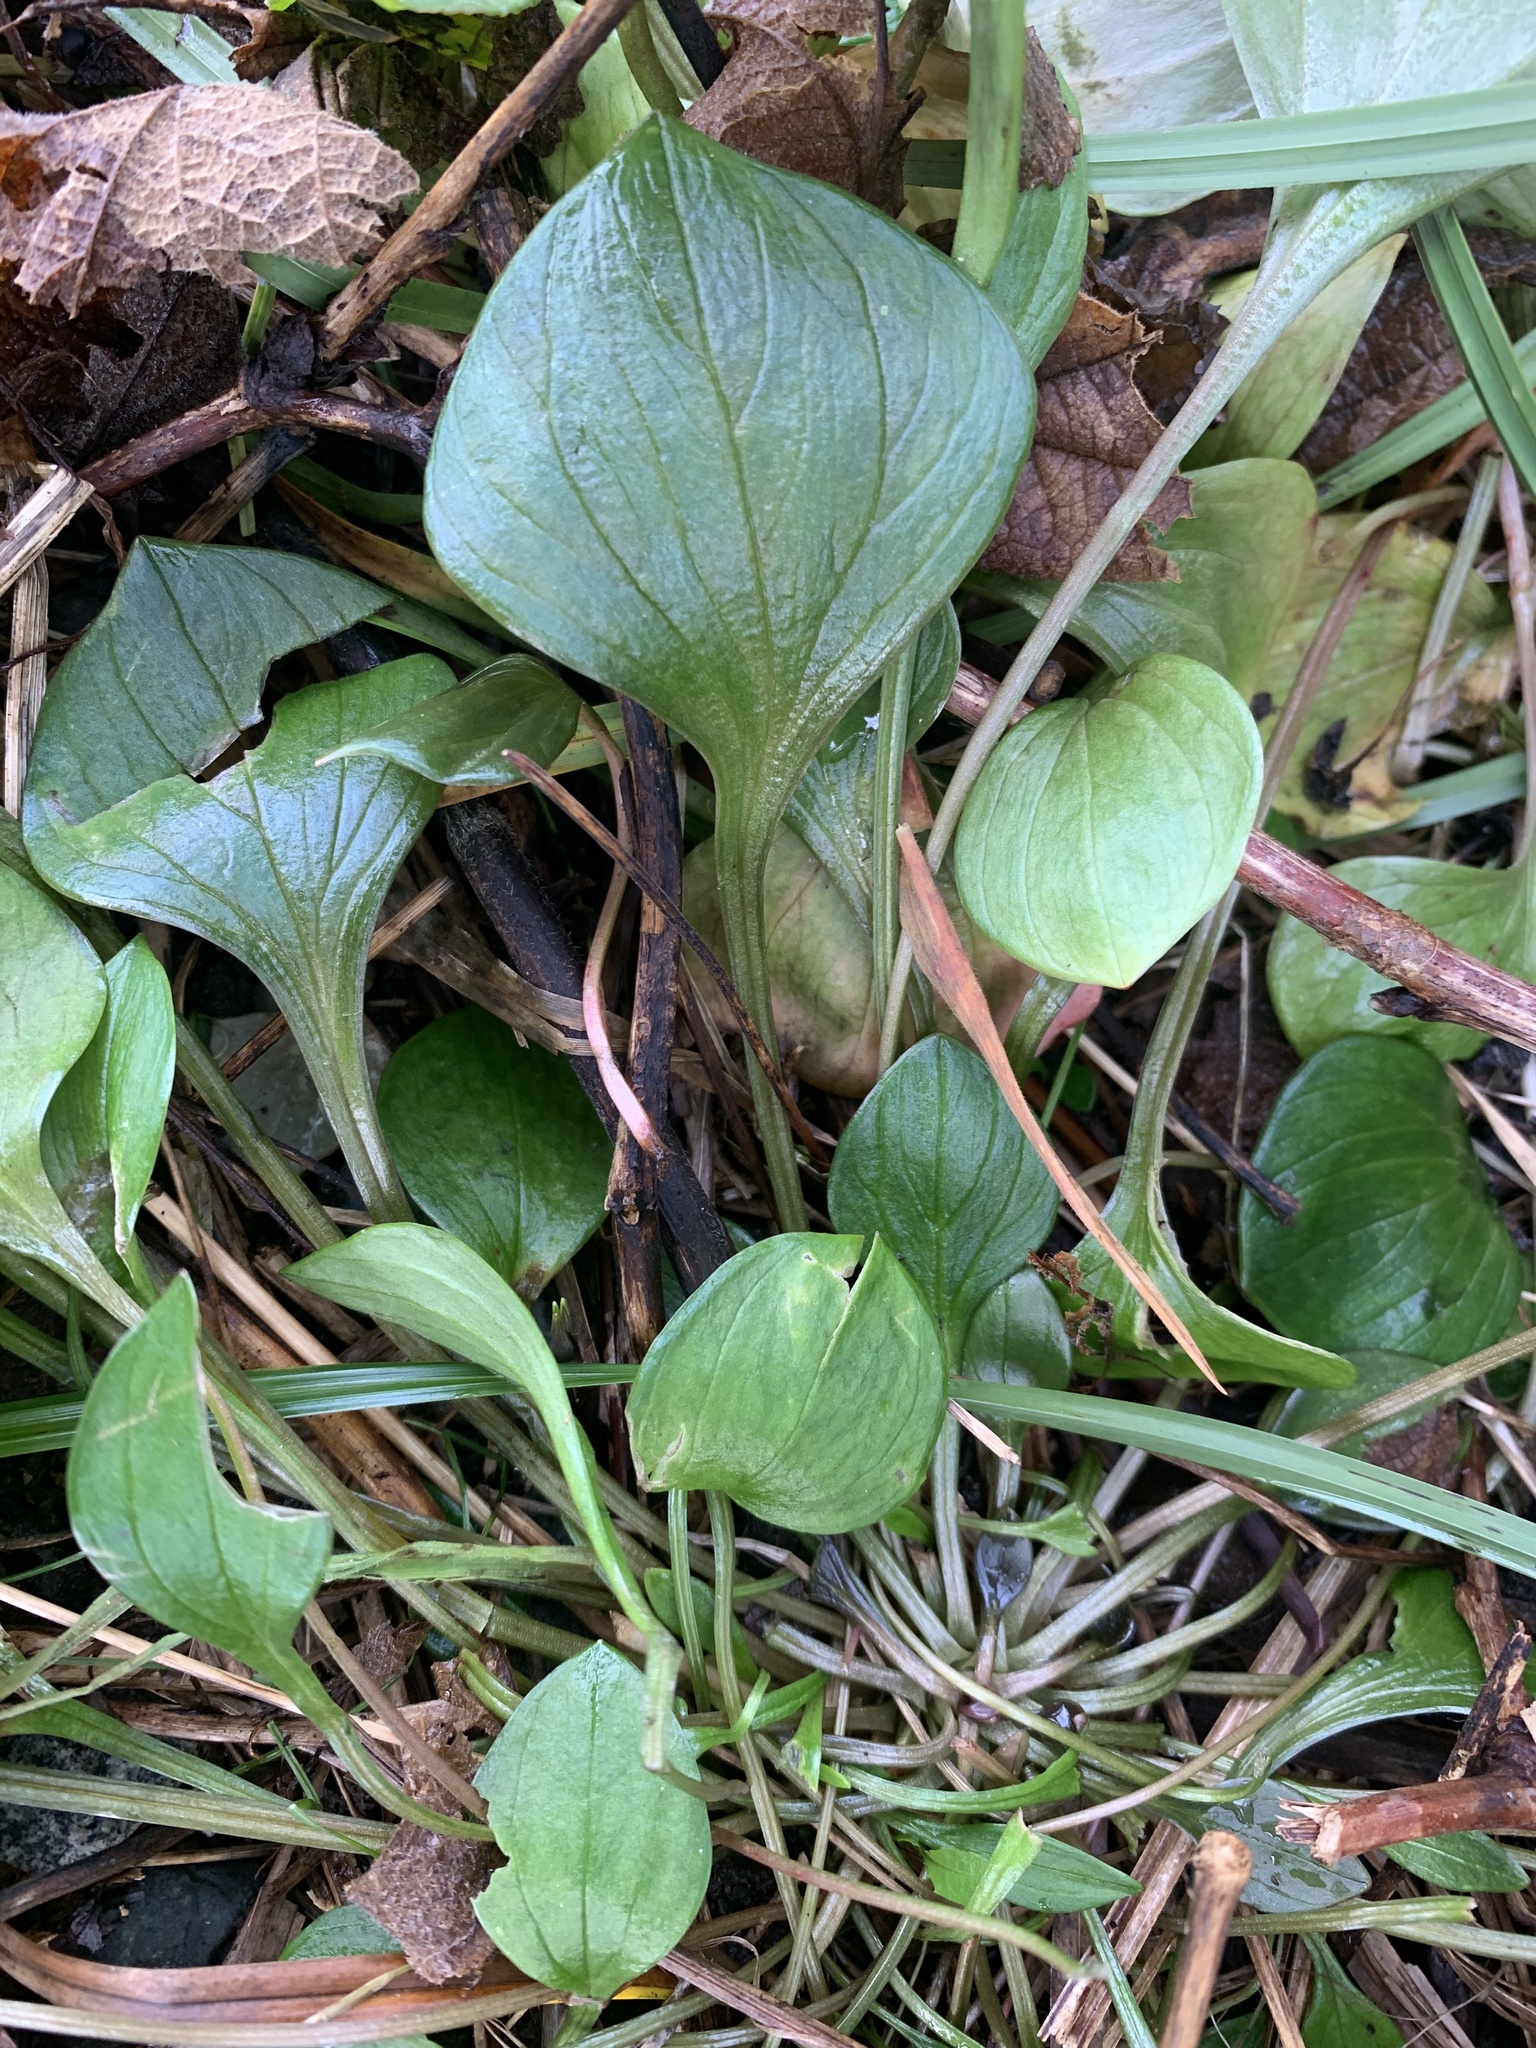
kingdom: Plantae
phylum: Tracheophyta
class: Magnoliopsida
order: Caryophyllales
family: Montiaceae
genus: Claytonia
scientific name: Claytonia sibirica
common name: Pink purslane
